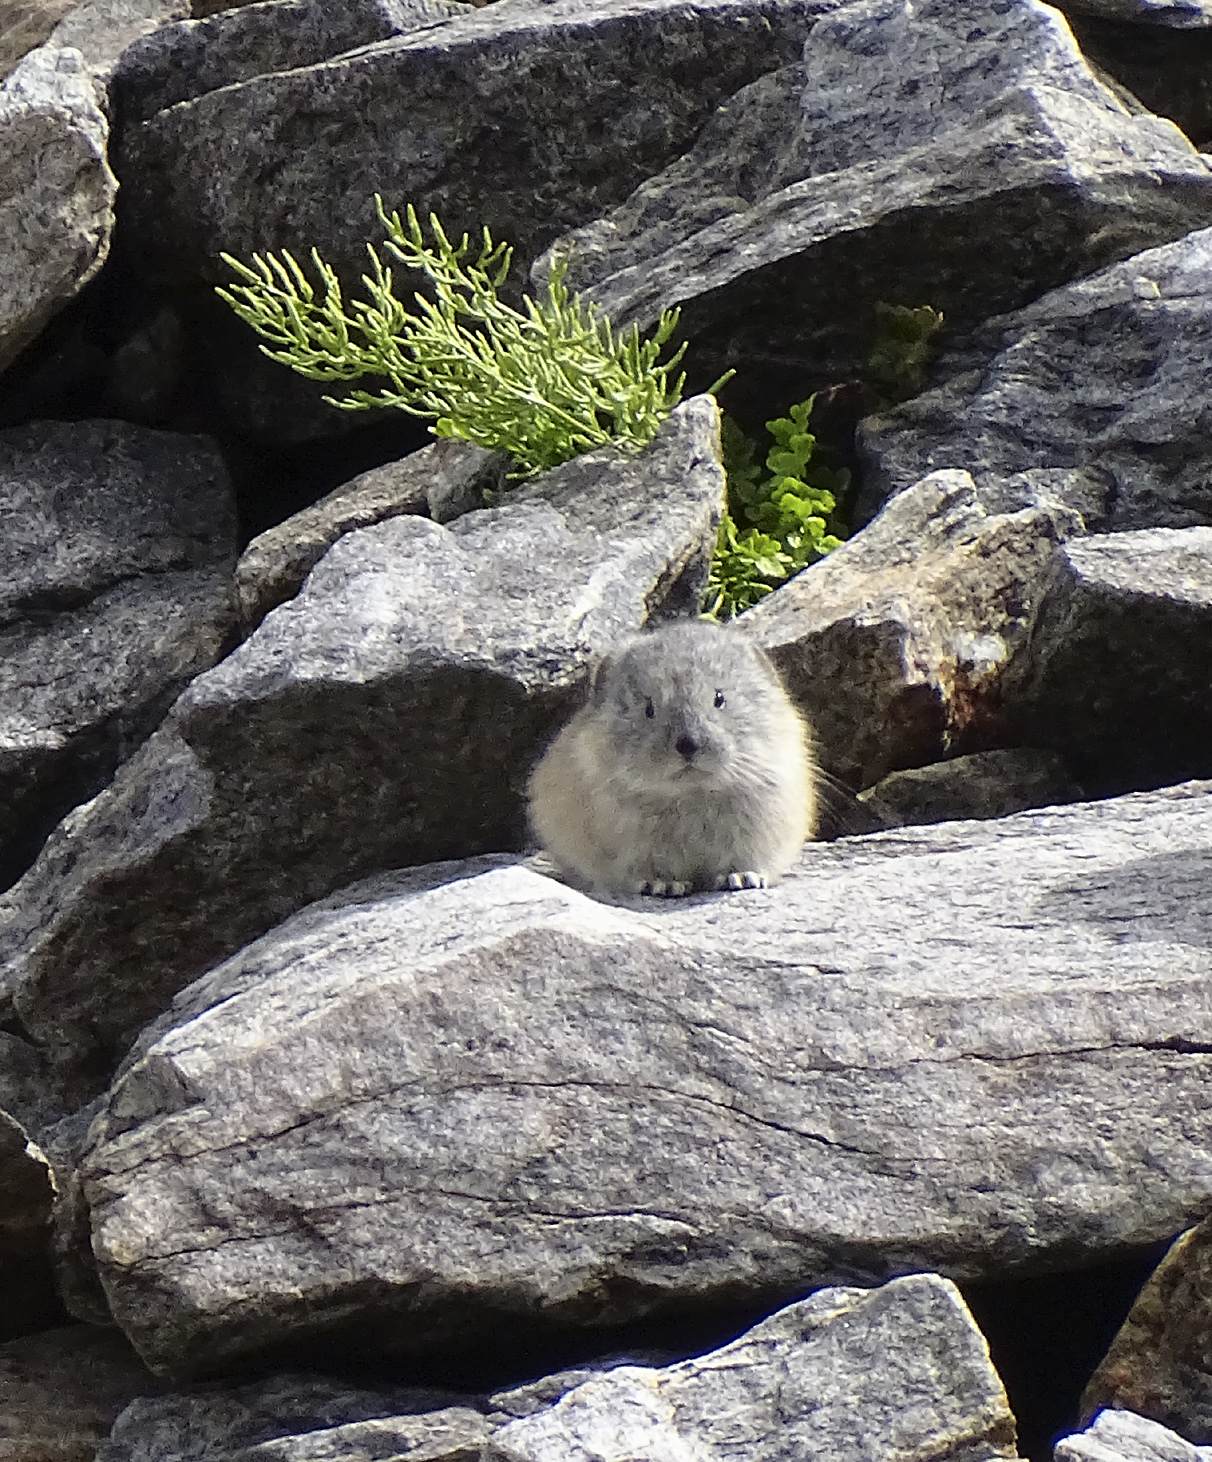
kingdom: Animalia
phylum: Chordata
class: Mammalia
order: Lagomorpha
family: Ochotonidae
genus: Ochotona
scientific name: Ochotona princeps
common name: American pika
